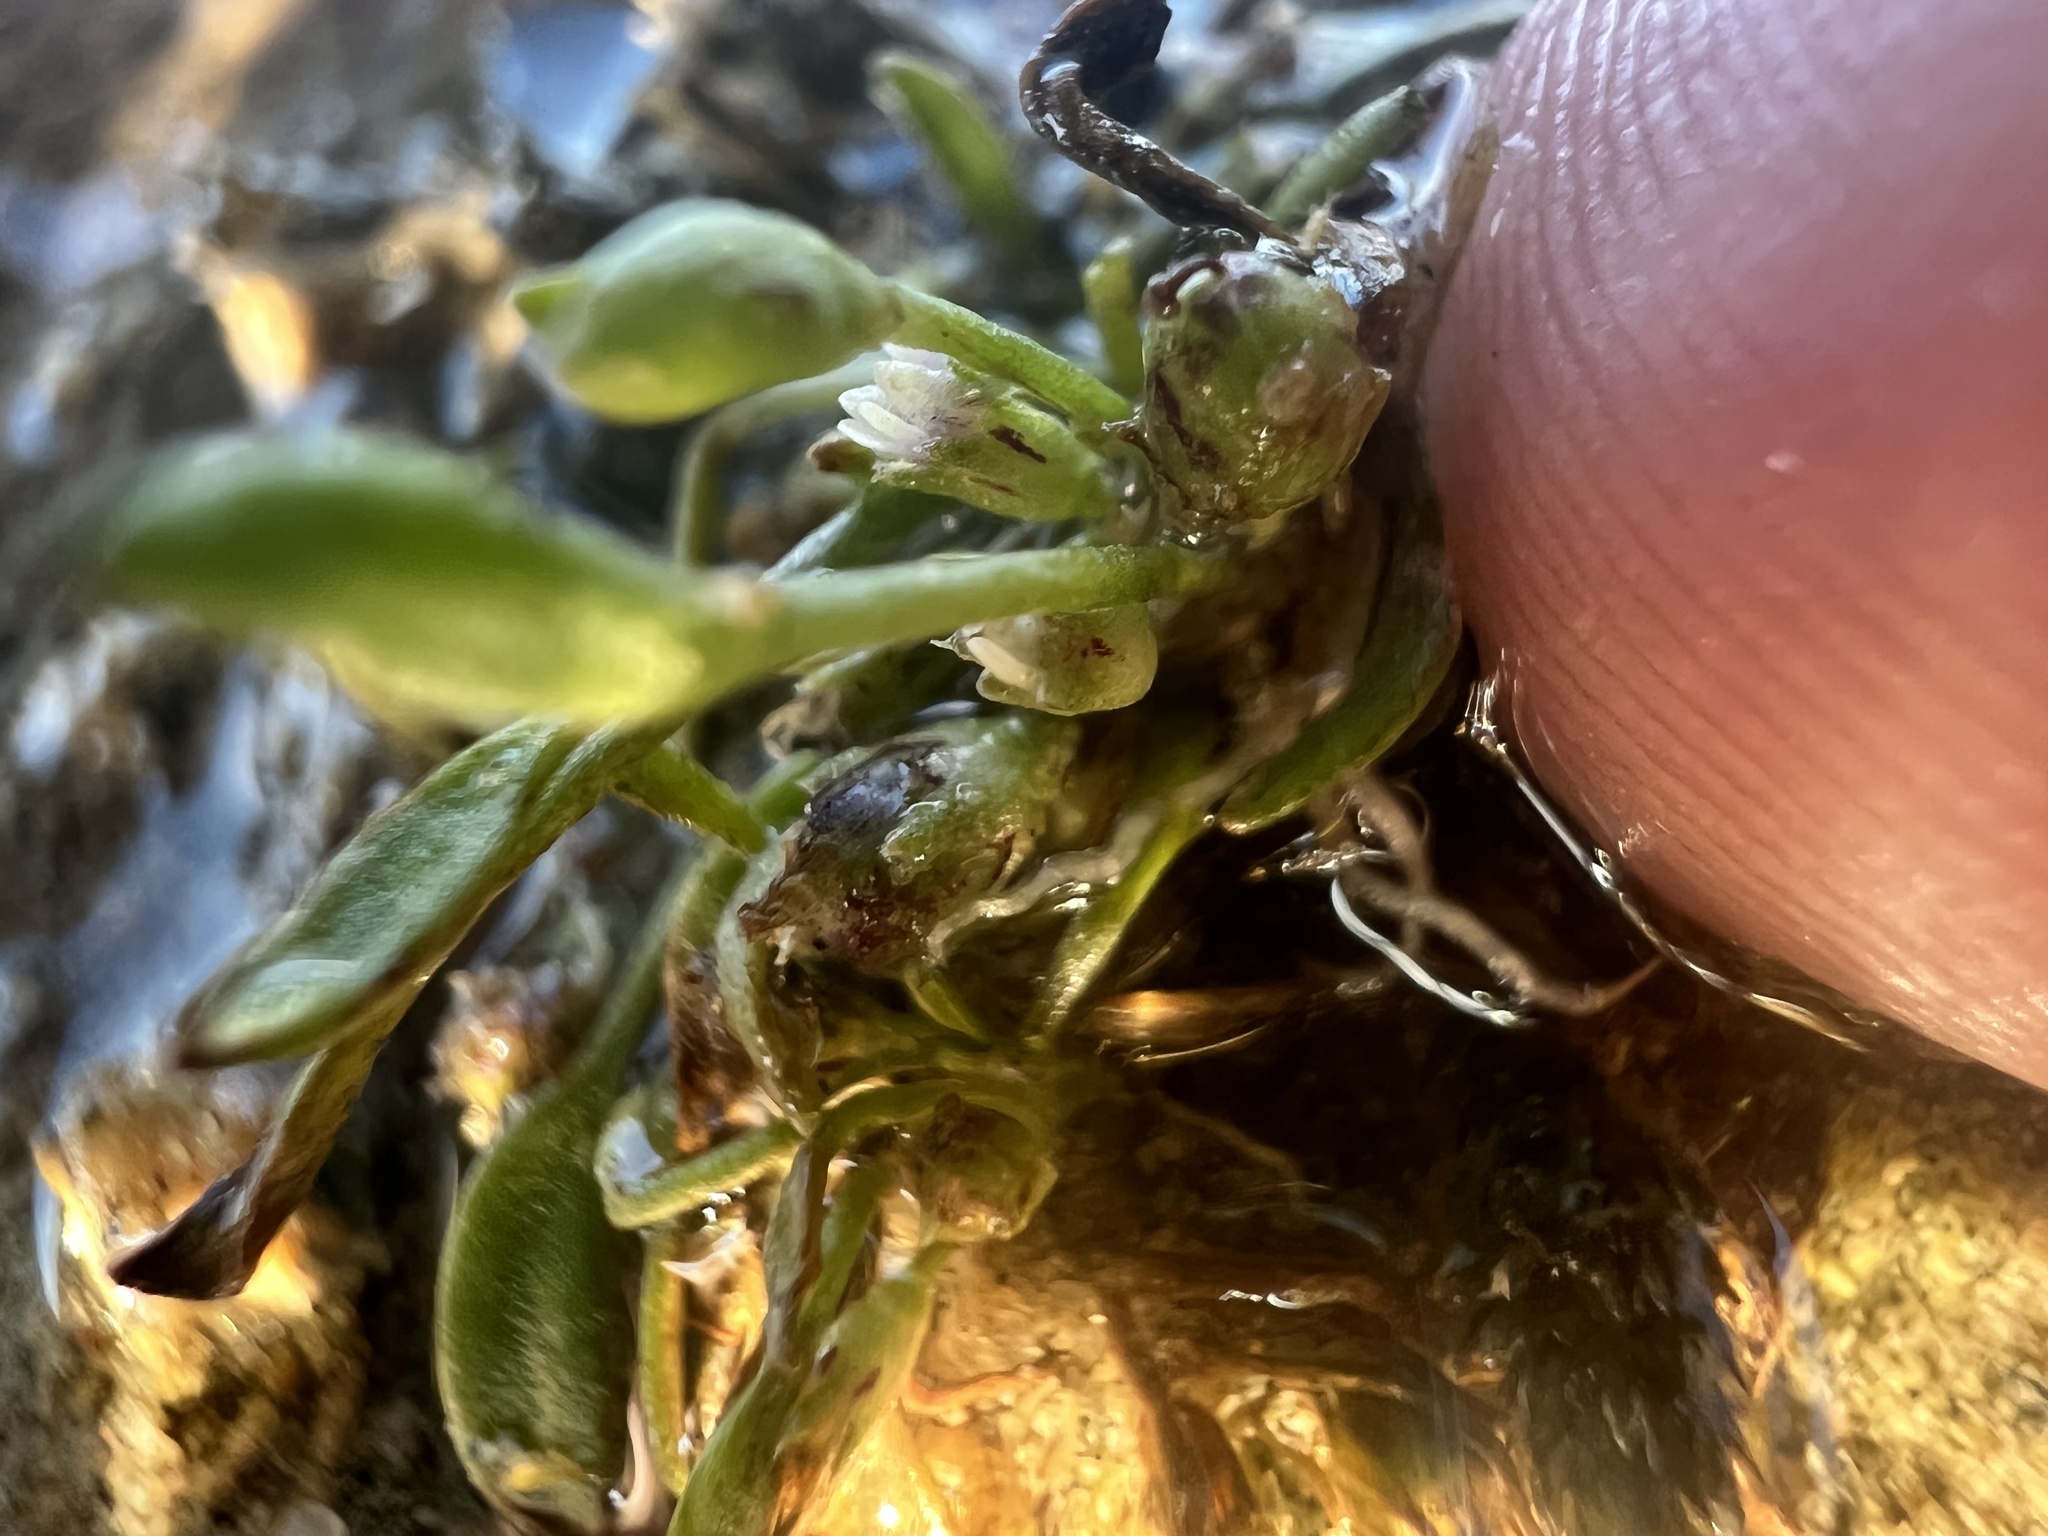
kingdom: Plantae
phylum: Tracheophyta
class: Magnoliopsida
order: Lamiales
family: Scrophulariaceae
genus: Limosella
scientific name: Limosella aquatica
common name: Mudwort
